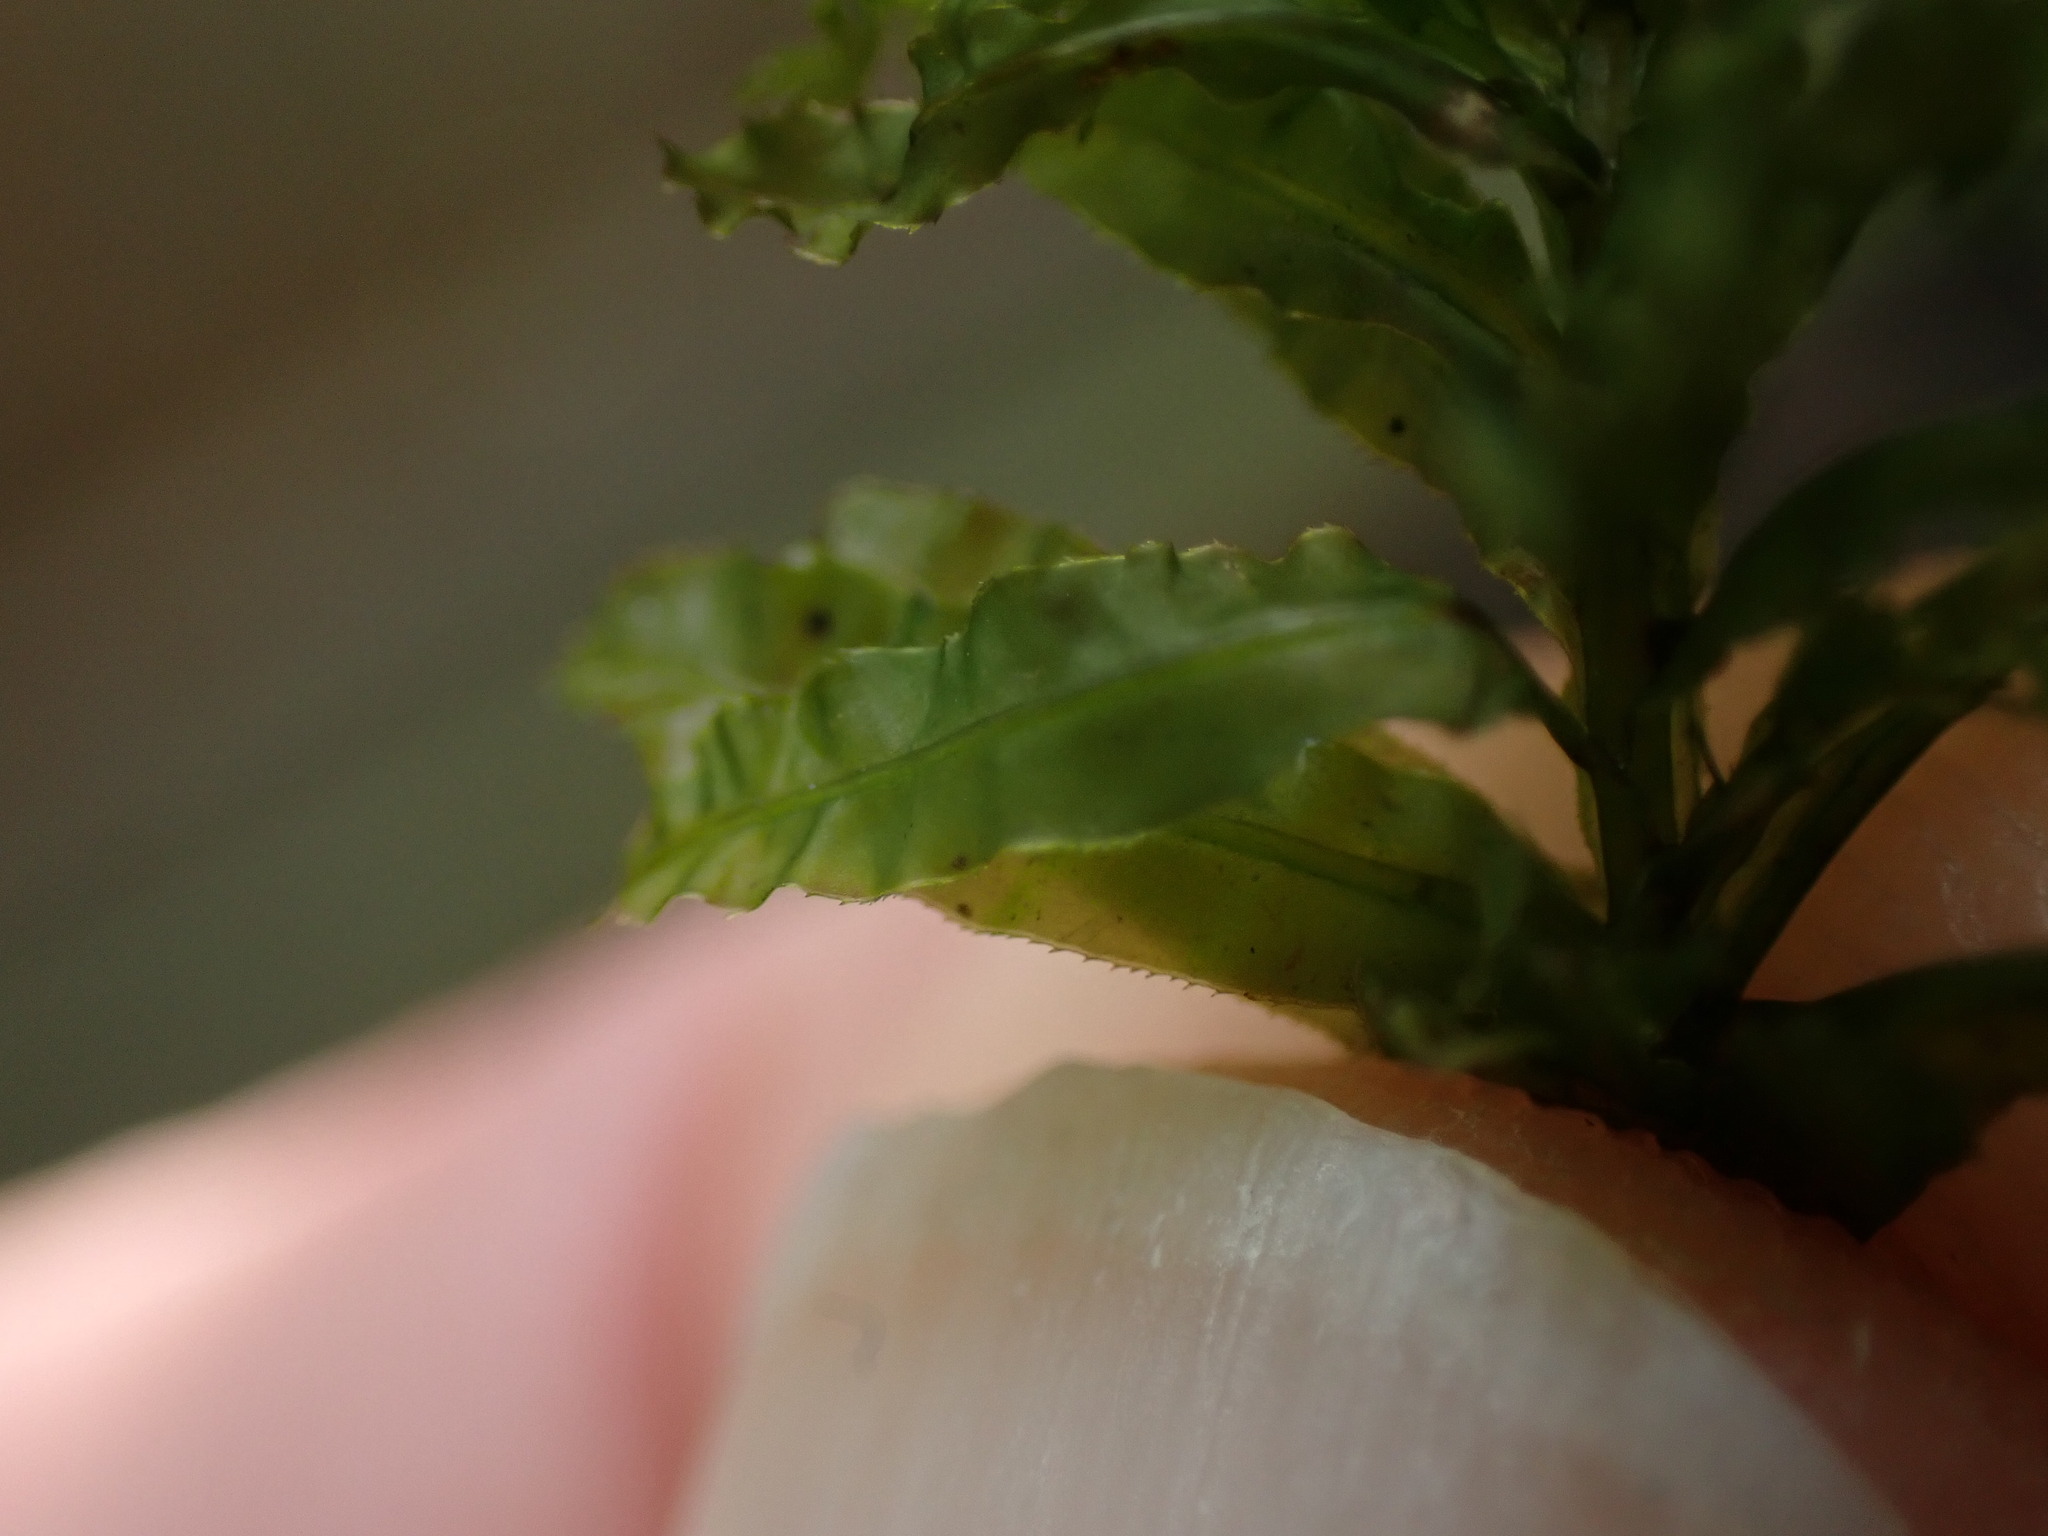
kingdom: Plantae
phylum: Bryophyta
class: Bryopsida
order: Bryales
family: Mniaceae
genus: Plagiomnium
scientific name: Plagiomnium undulatum
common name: Hart's-tongue thyme-moss
